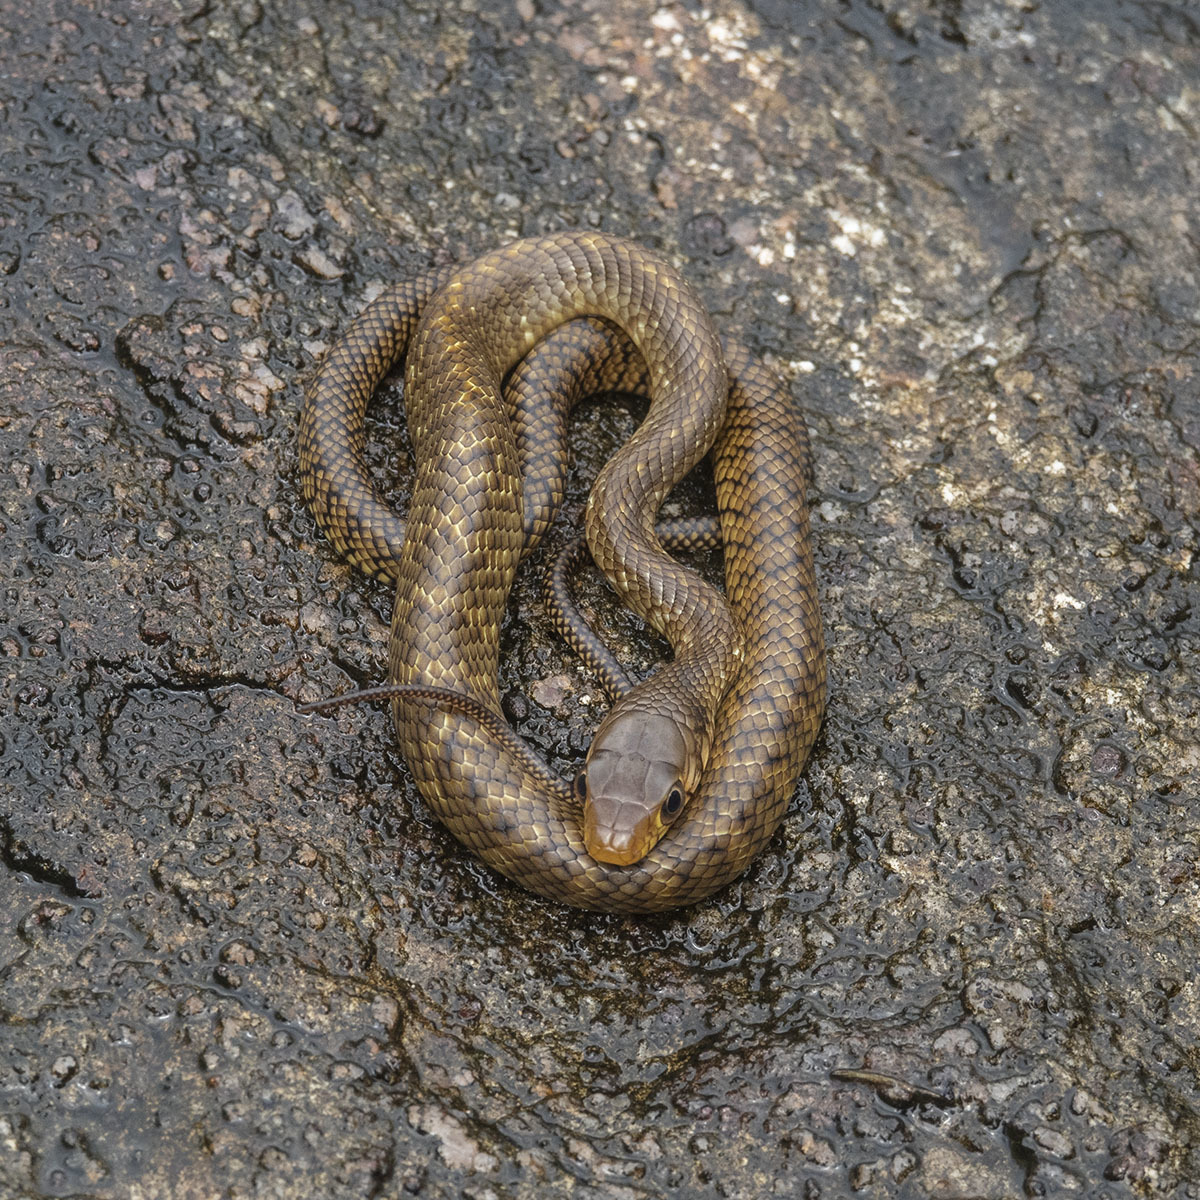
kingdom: Animalia
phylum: Chordata
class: Squamata
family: Colubridae
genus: Ptyas
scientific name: Ptyas mucosa
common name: Oriental ratsnake
